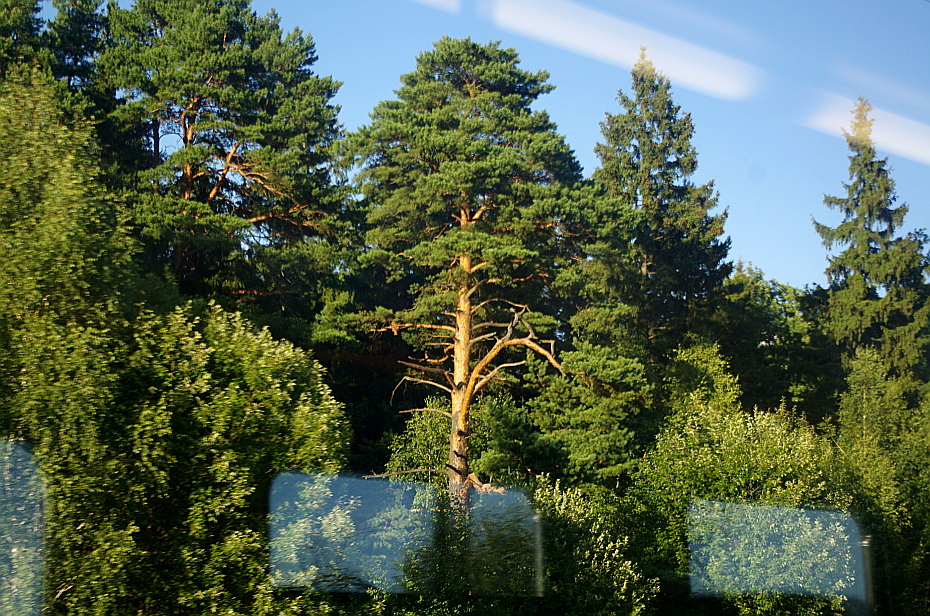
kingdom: Plantae
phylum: Tracheophyta
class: Pinopsida
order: Pinales
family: Pinaceae
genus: Pinus
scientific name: Pinus sylvestris
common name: Scots pine
